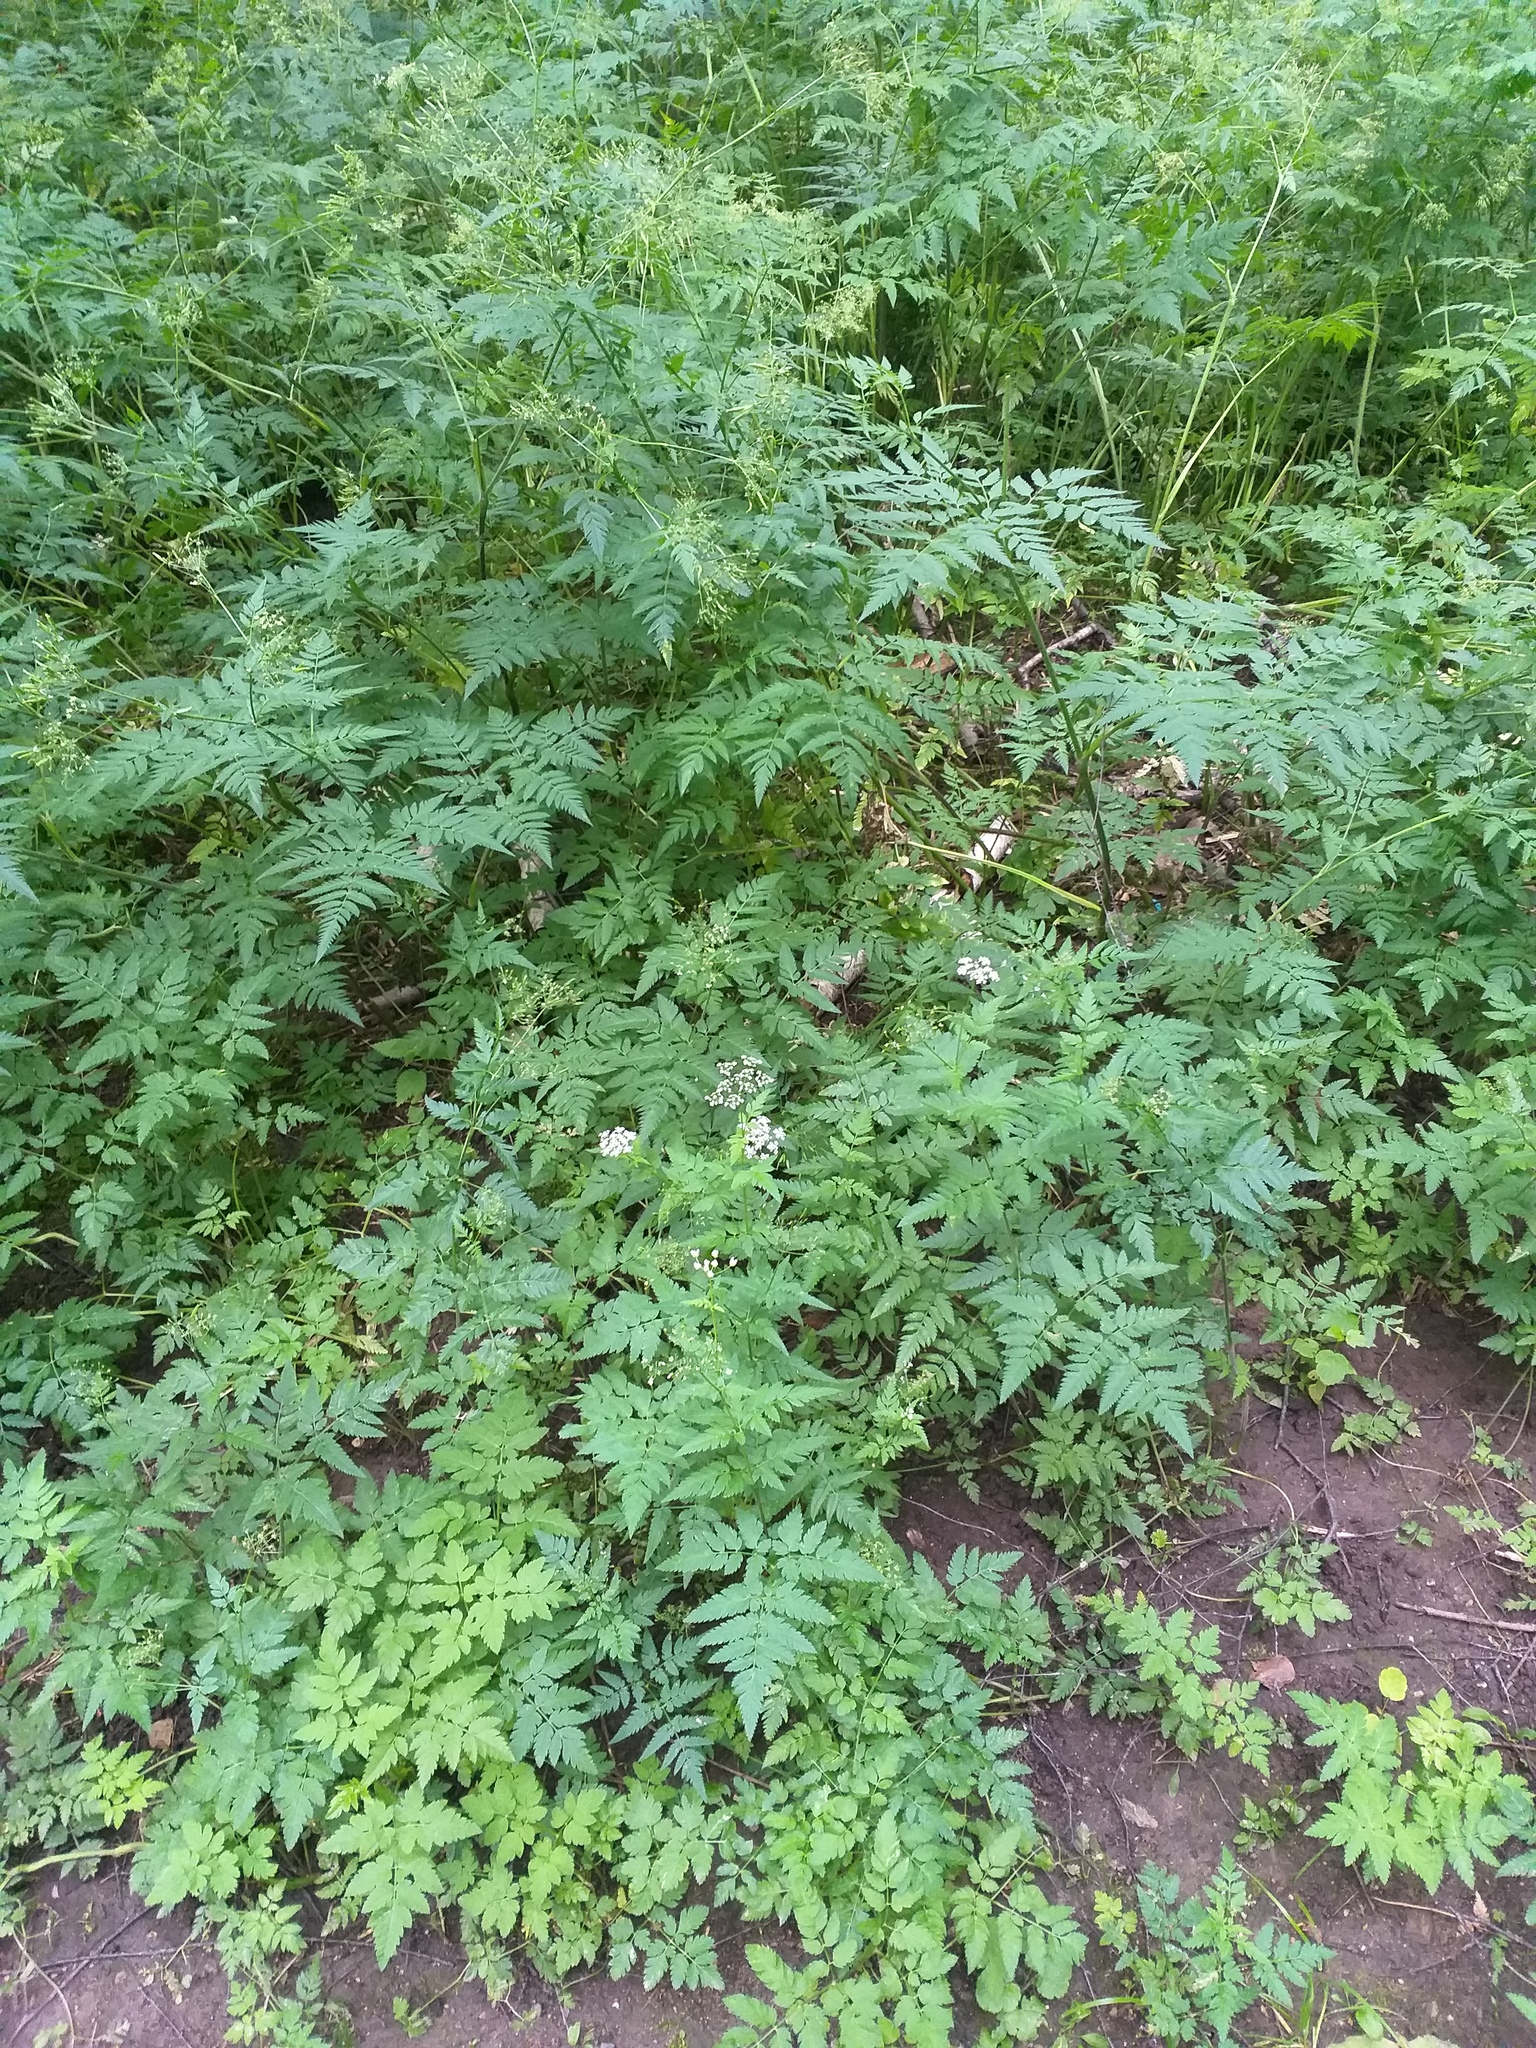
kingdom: Plantae
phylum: Tracheophyta
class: Magnoliopsida
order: Apiales
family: Apiaceae
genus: Chaerophyllum
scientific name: Chaerophyllum aureum
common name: Golden chervil
